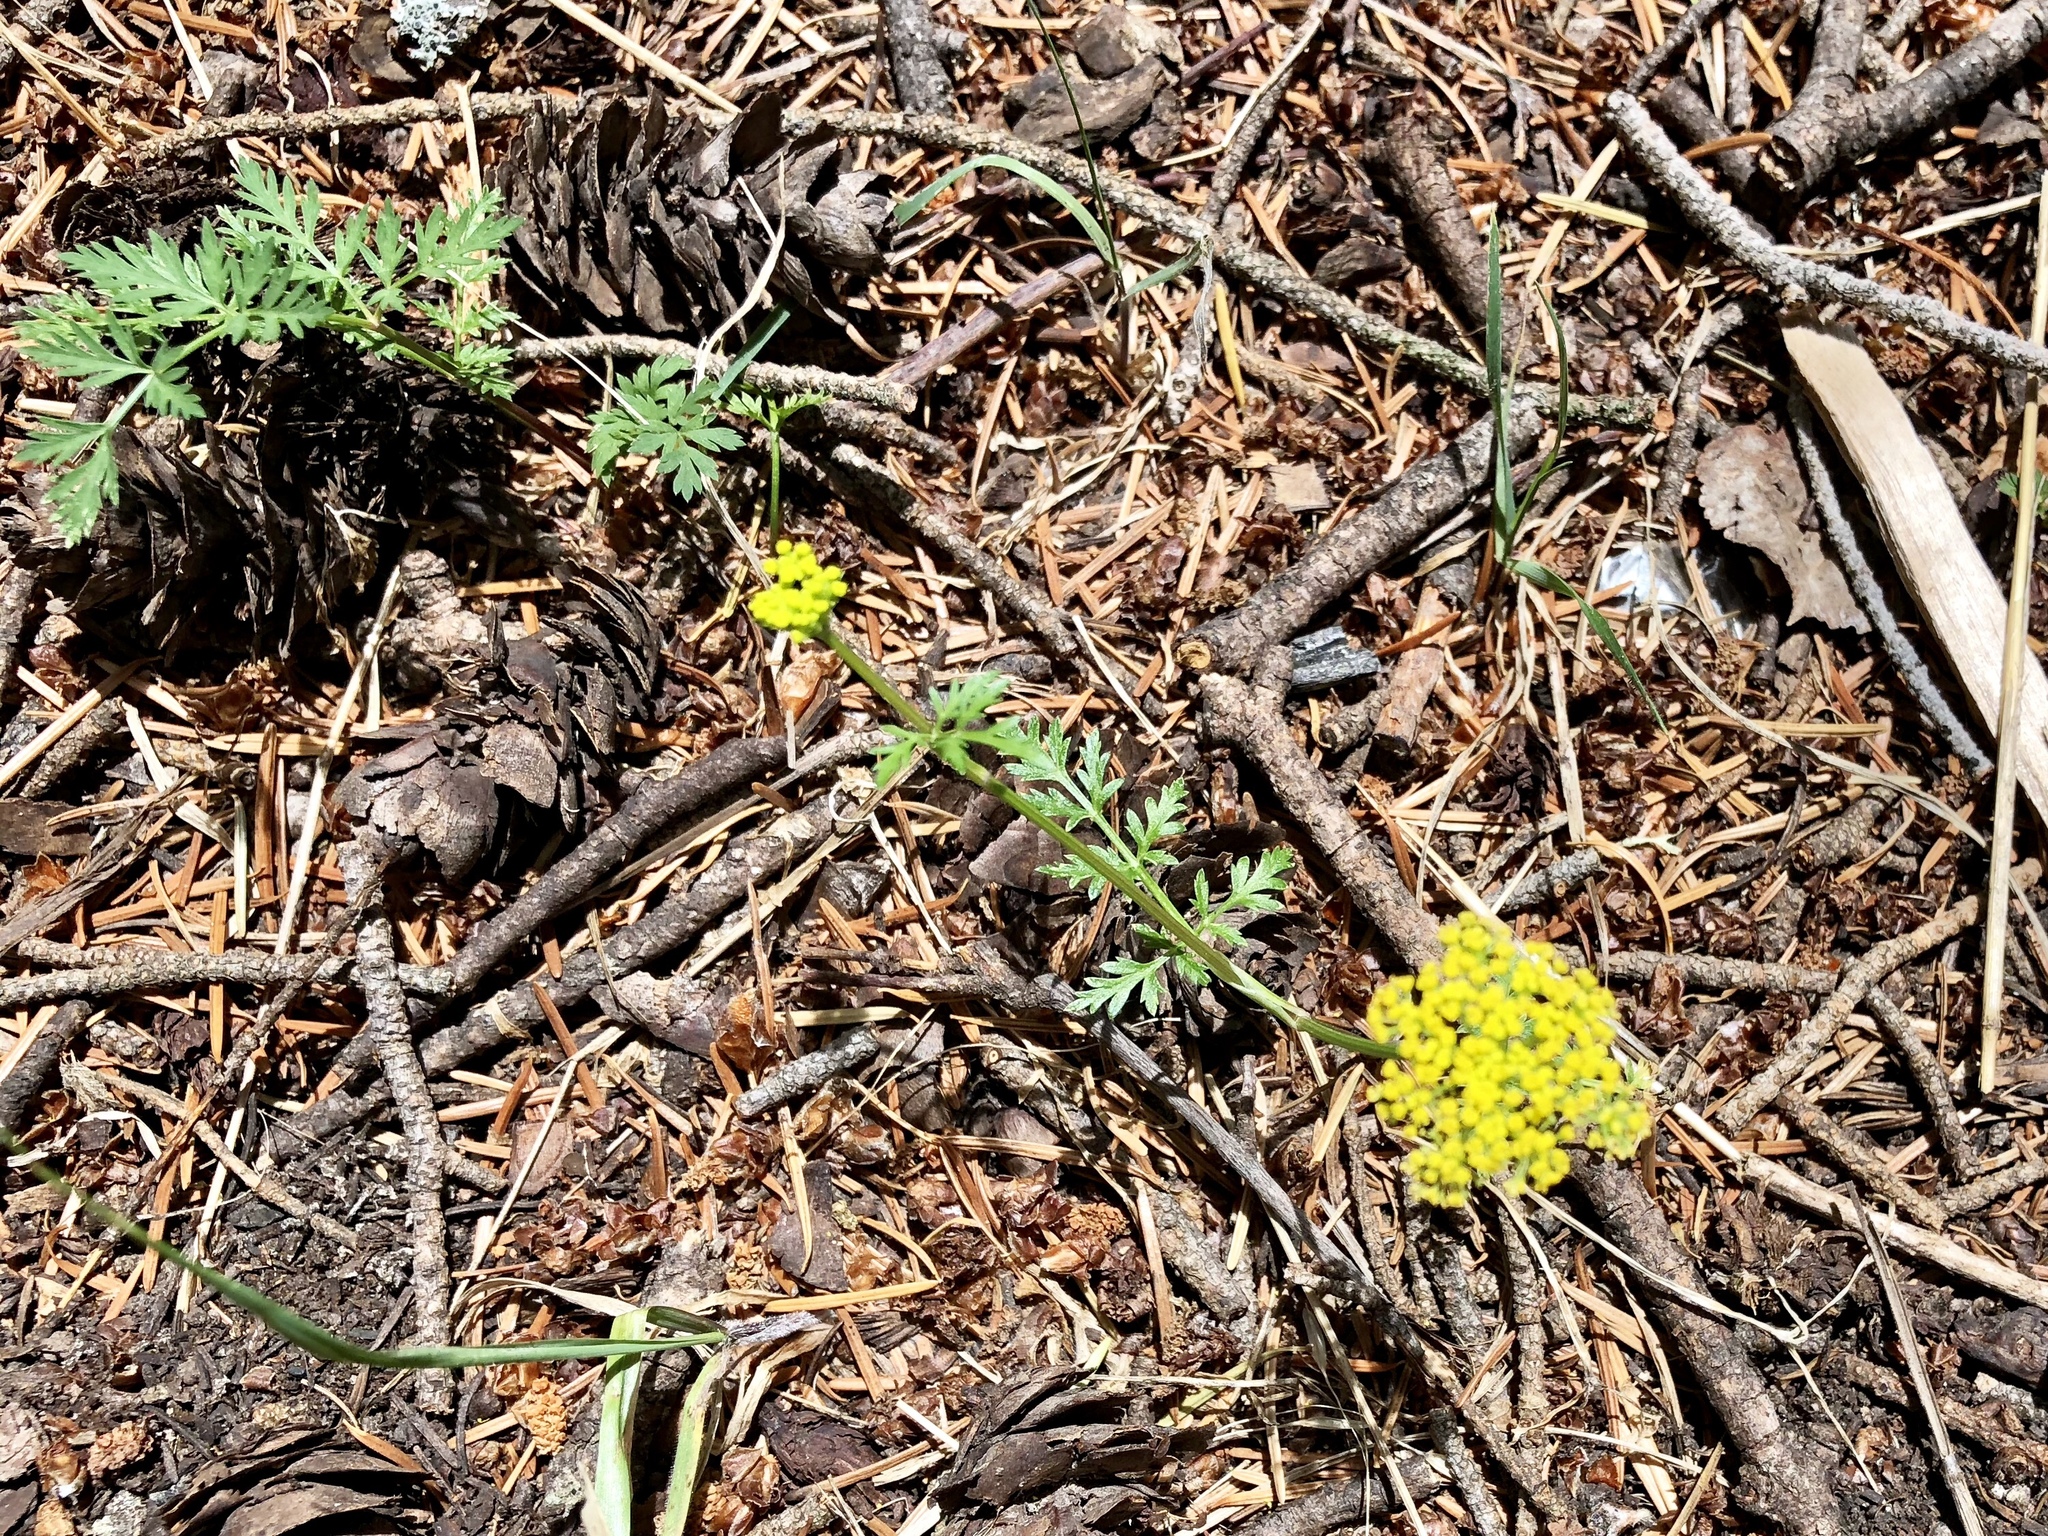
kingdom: Plantae
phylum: Tracheophyta
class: Magnoliopsida
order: Apiales
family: Apiaceae
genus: Cymopterus
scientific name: Cymopterus lemmonii
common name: Lemmon's spring-parsley
